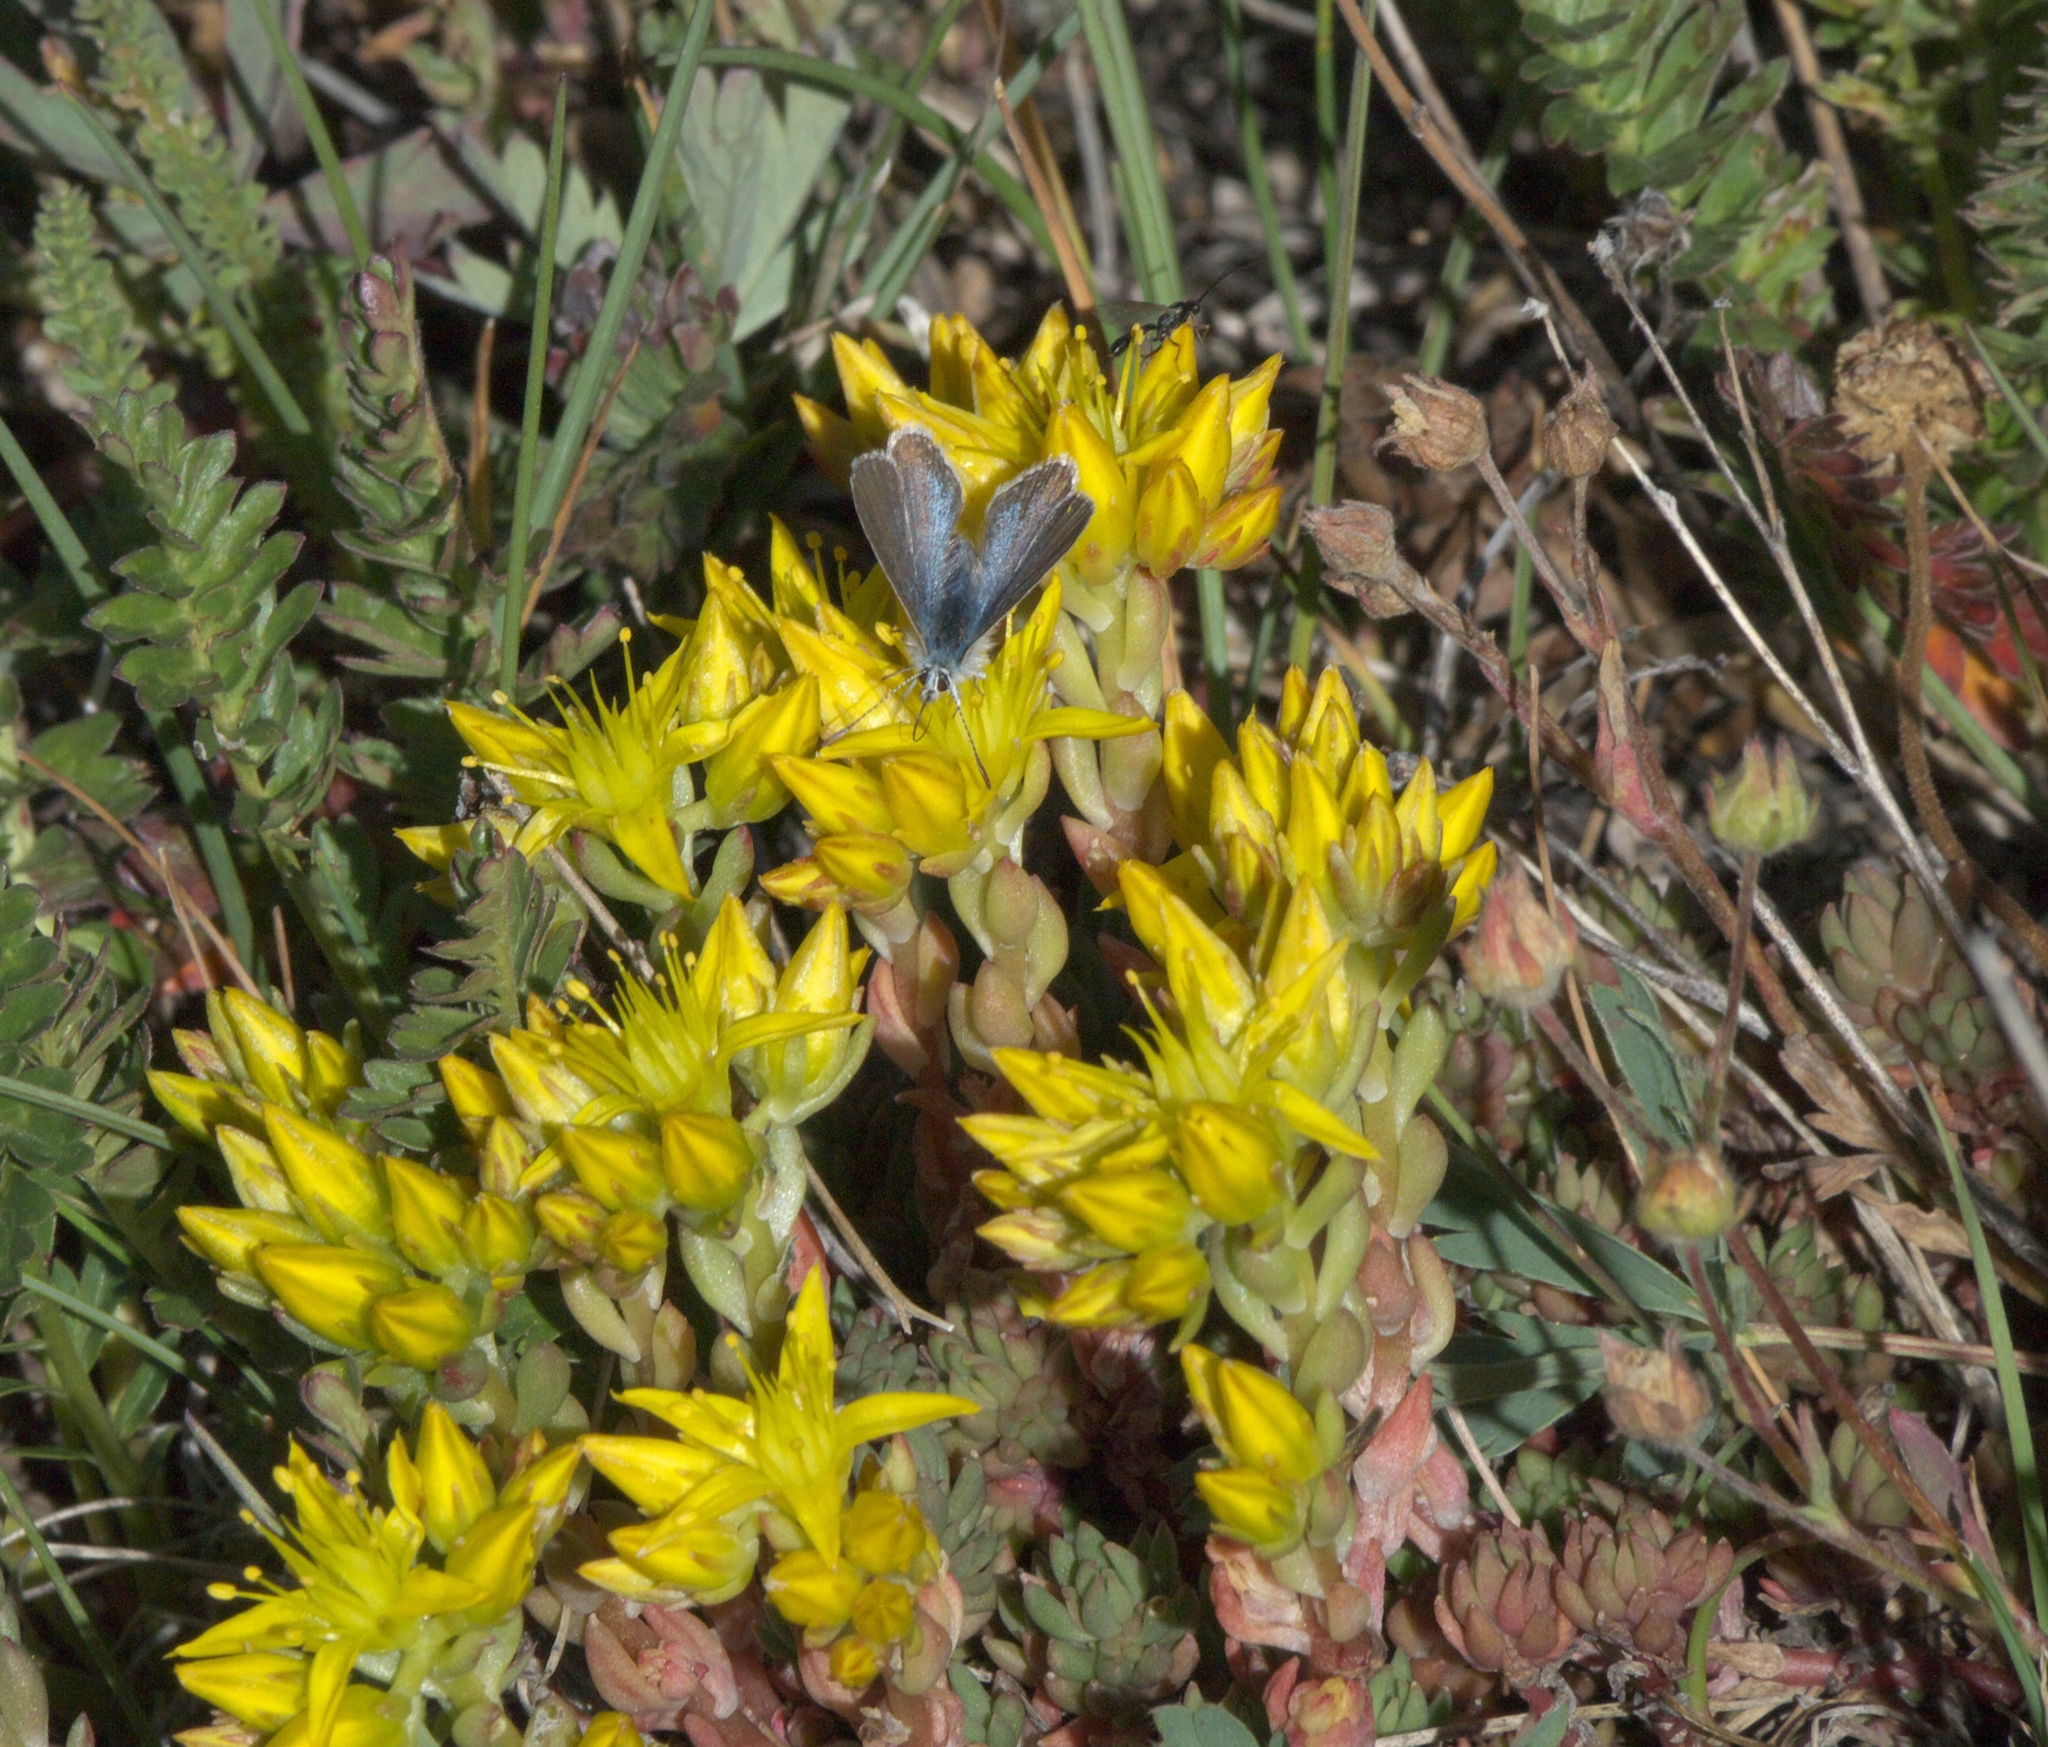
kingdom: Plantae
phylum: Tracheophyta
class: Magnoliopsida
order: Saxifragales
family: Crassulaceae
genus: Sedum
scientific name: Sedum lanceolatum
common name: Common stonecrop
